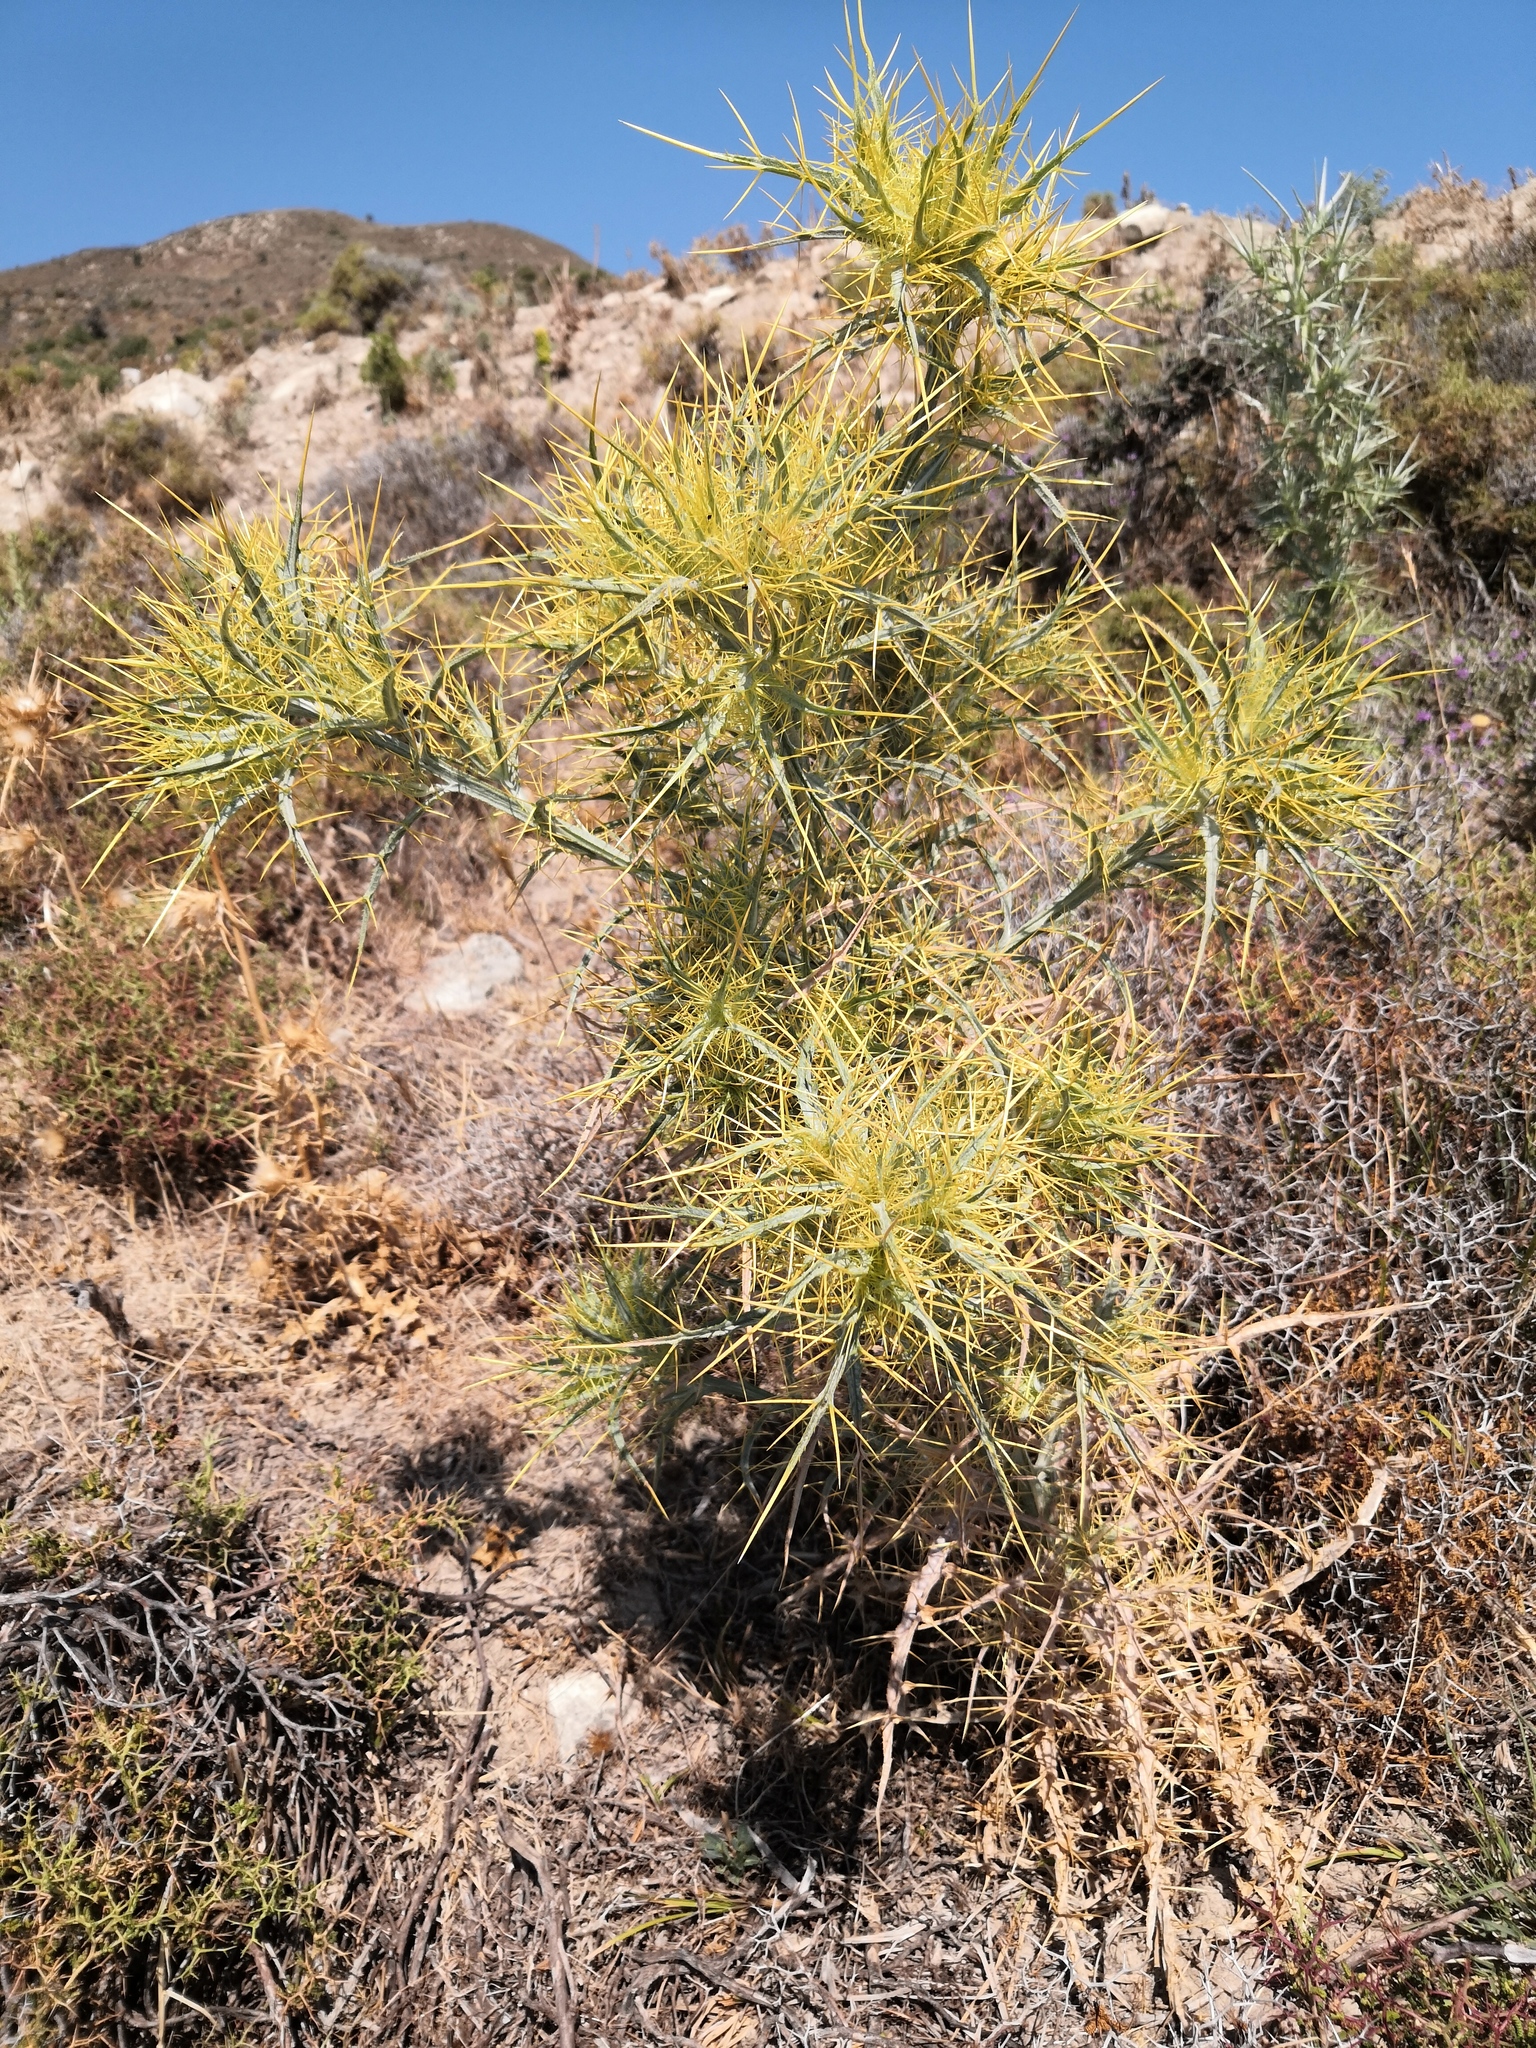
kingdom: Plantae
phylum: Tracheophyta
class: Magnoliopsida
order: Asterales
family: Asteraceae
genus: Picnomon
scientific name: Picnomon acarna
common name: Soldier thistle
